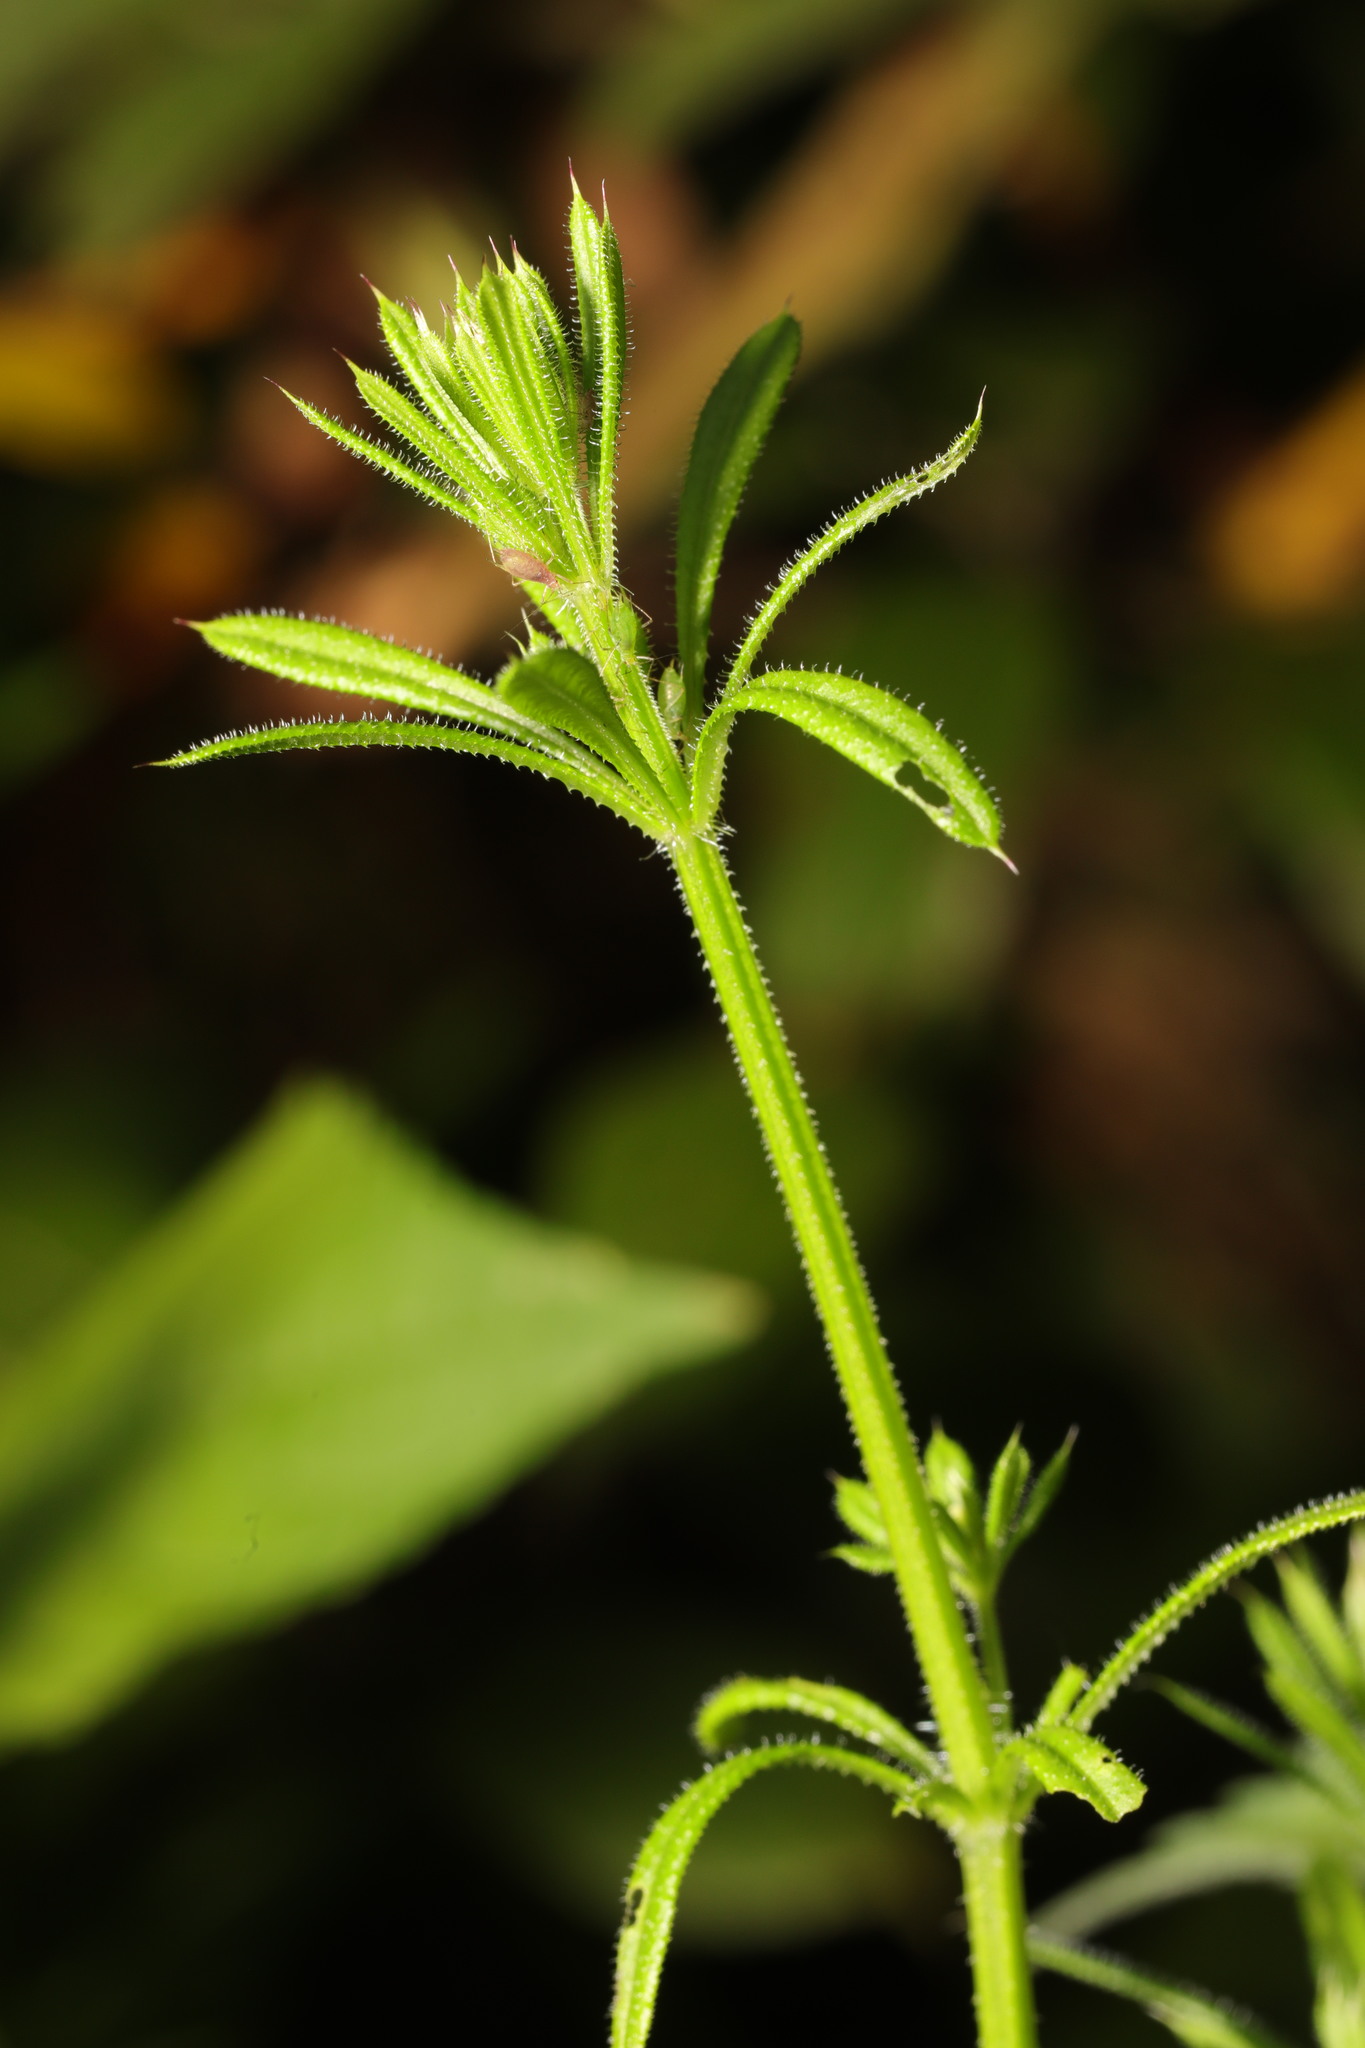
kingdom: Plantae
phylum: Tracheophyta
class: Magnoliopsida
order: Gentianales
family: Rubiaceae
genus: Galium
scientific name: Galium aparine
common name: Cleavers
